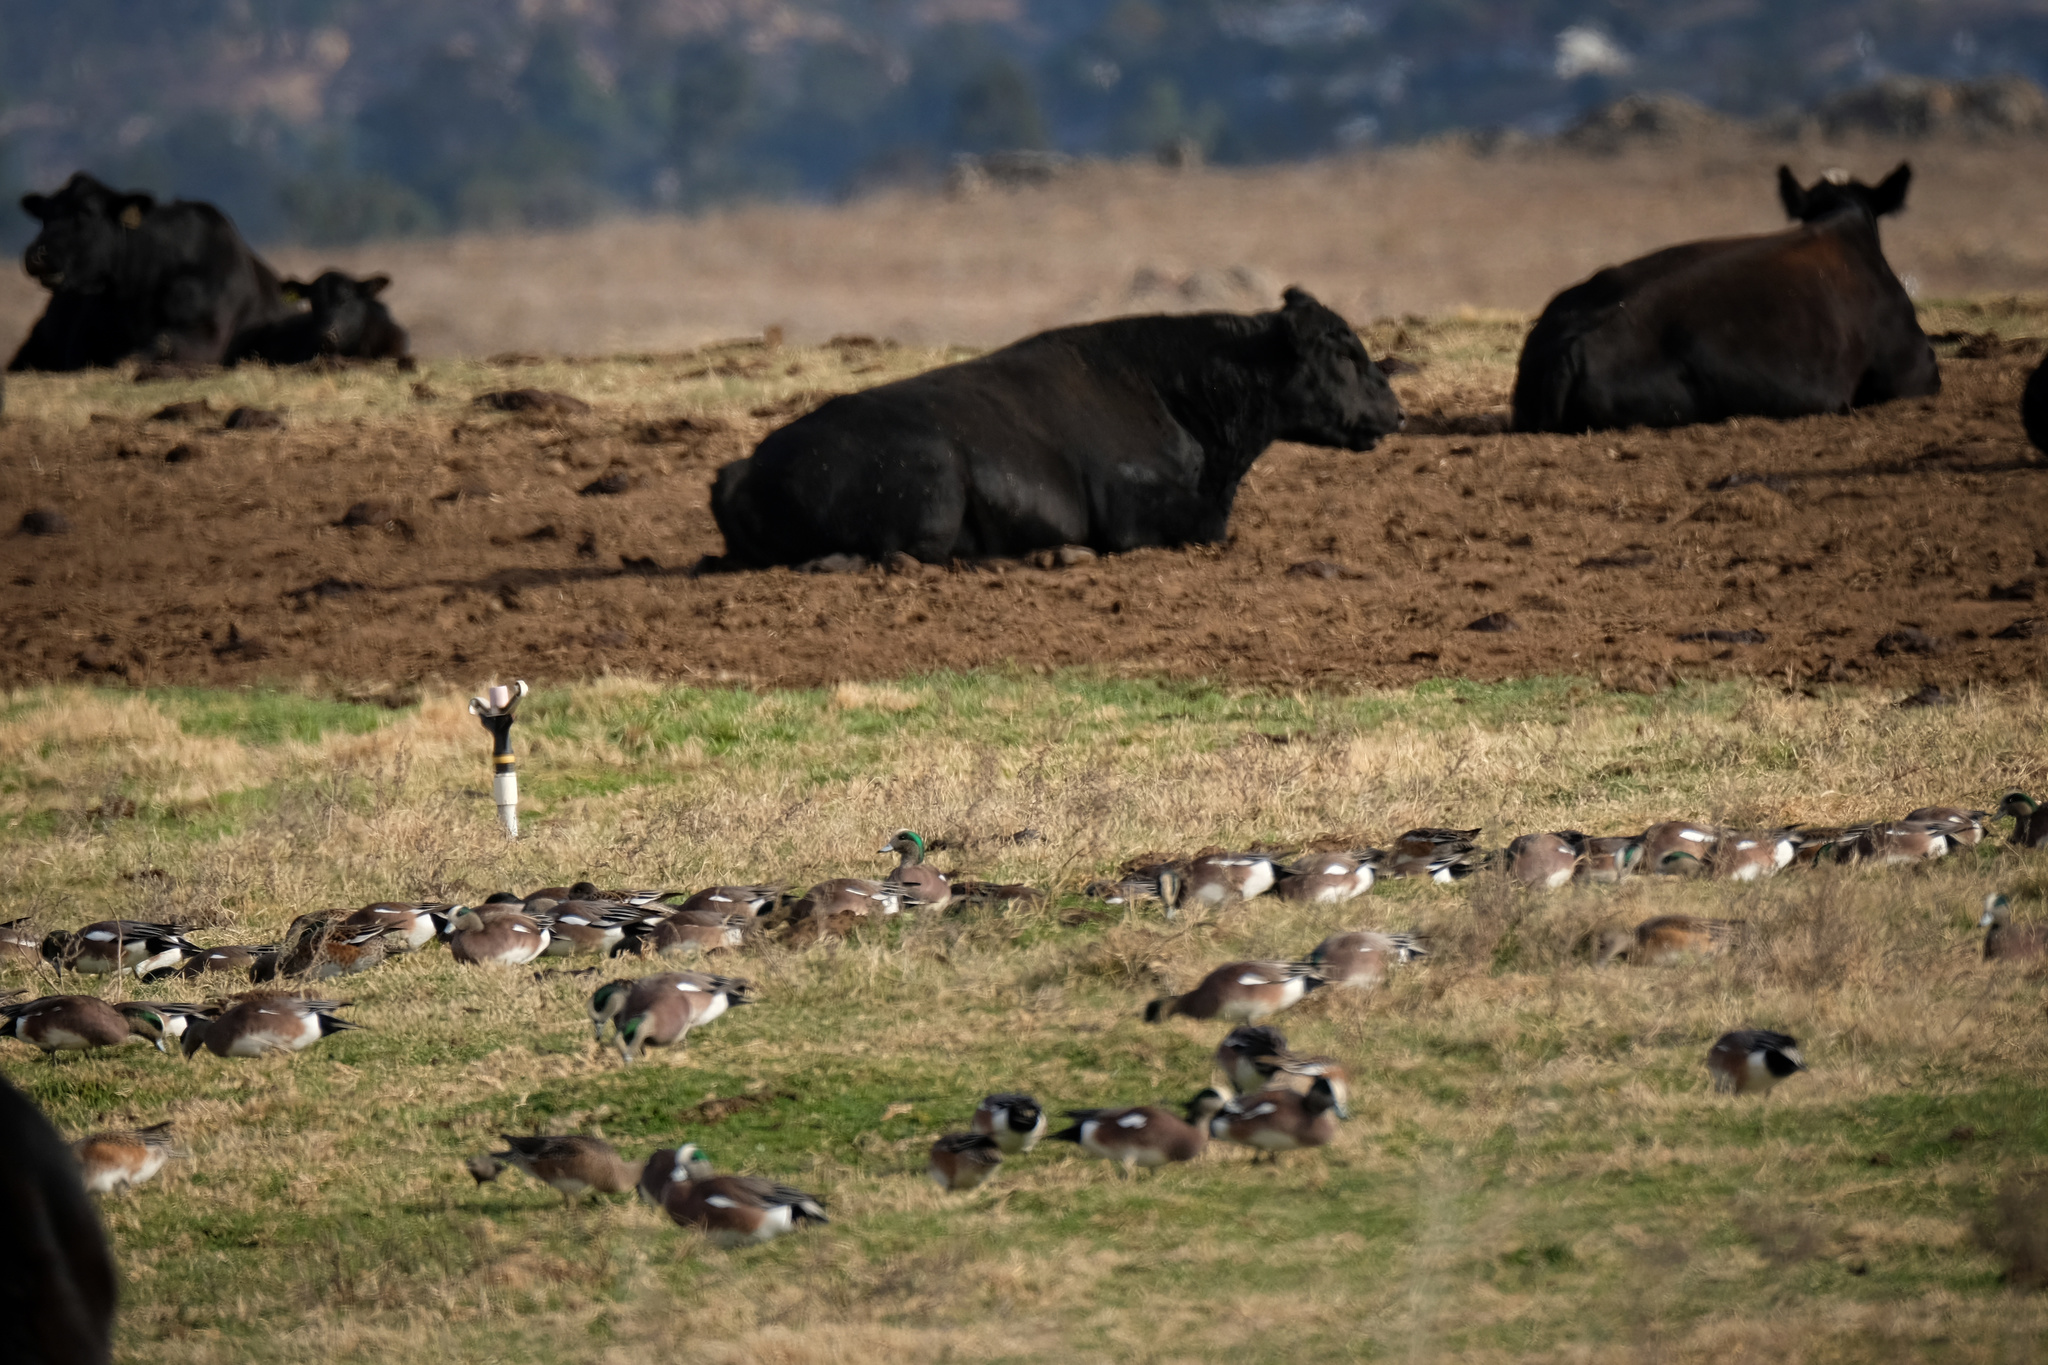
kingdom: Animalia
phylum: Chordata
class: Aves
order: Anseriformes
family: Anatidae
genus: Mareca
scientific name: Mareca americana
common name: American wigeon
